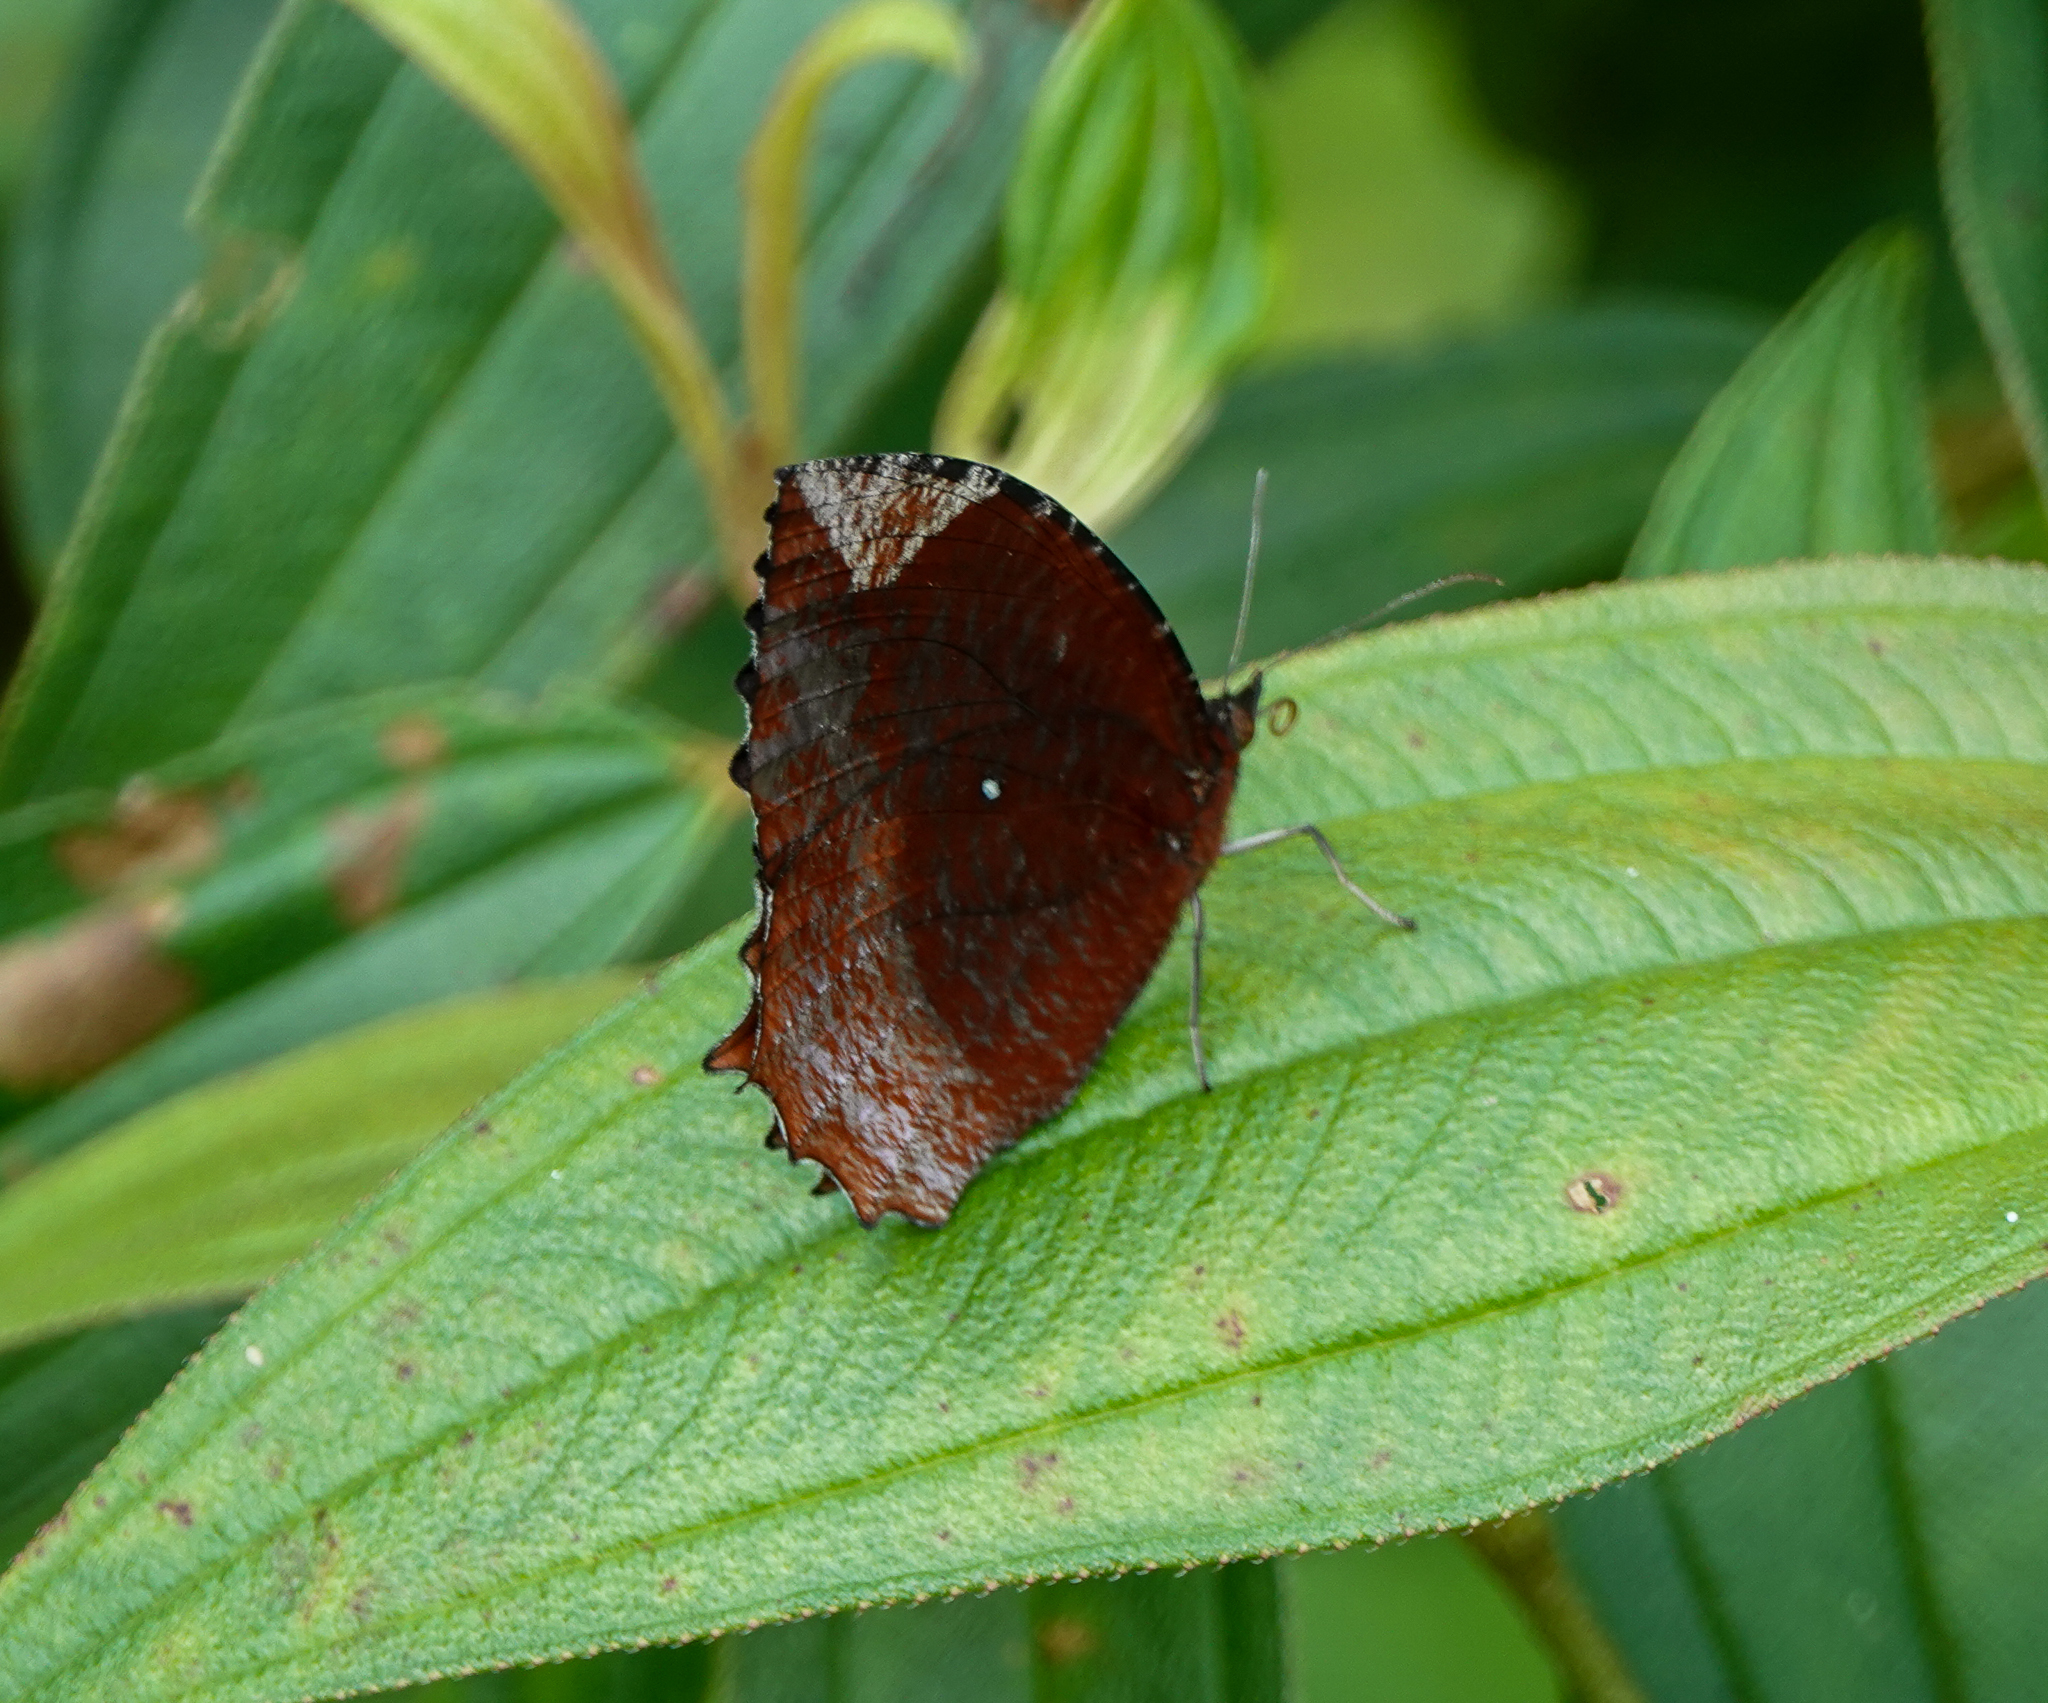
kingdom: Animalia
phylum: Arthropoda
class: Insecta
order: Lepidoptera
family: Nymphalidae
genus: Elymnias
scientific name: Elymnias hypermnestra
